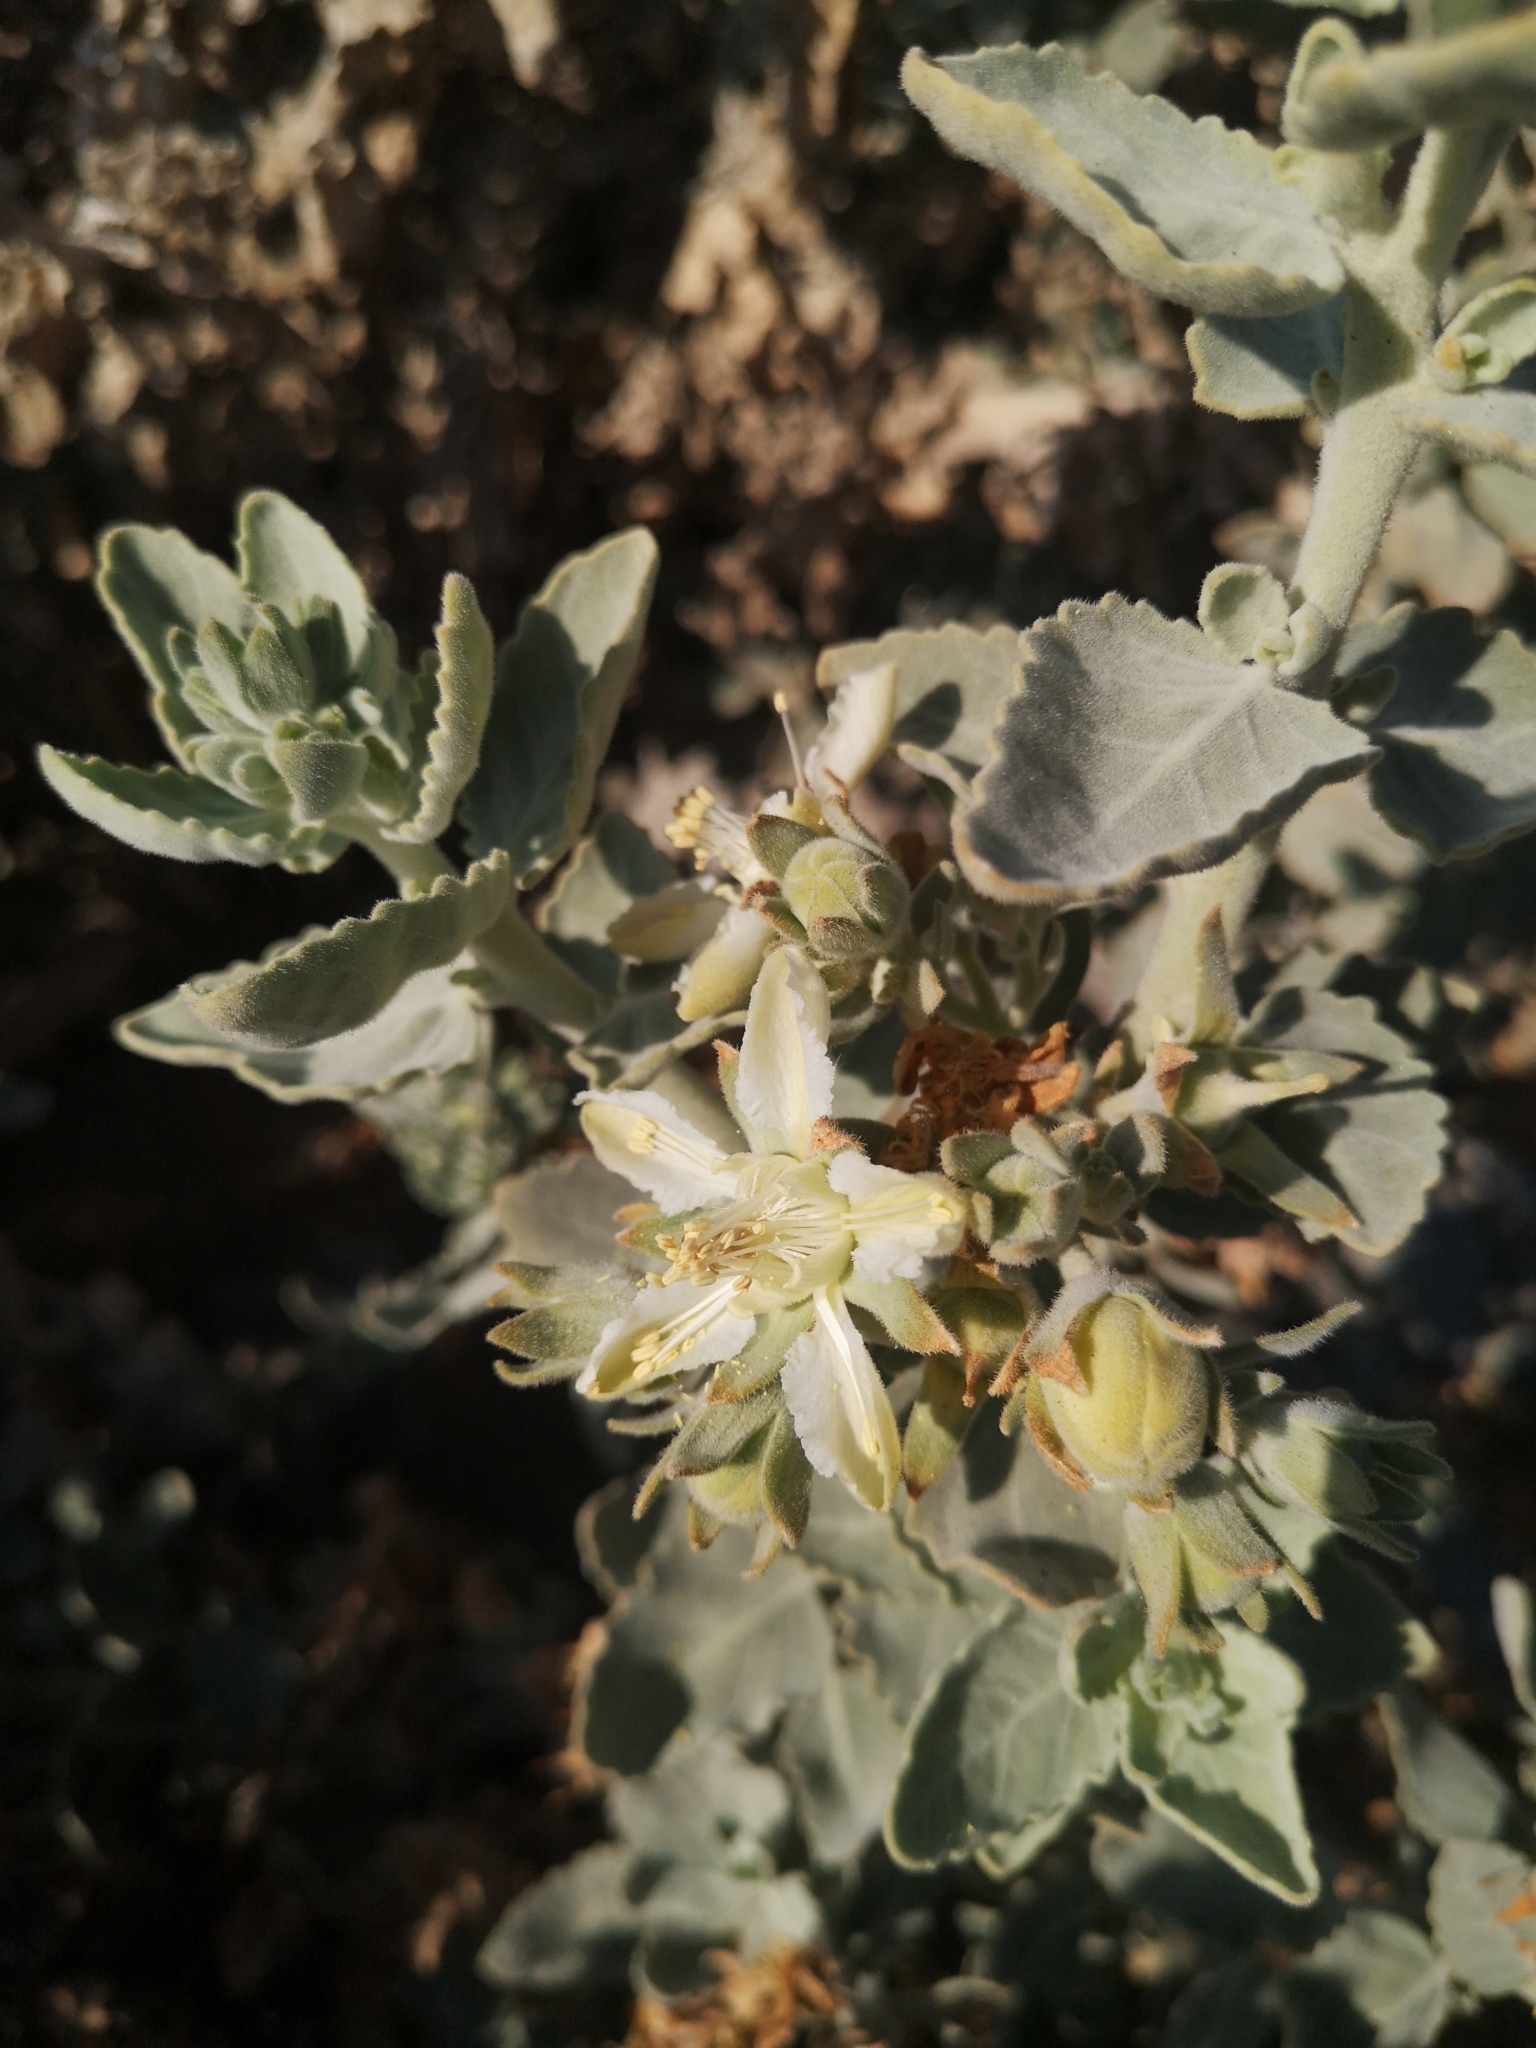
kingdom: Plantae
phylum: Tracheophyta
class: Magnoliopsida
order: Cornales
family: Loasaceae
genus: Huidobria
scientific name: Huidobria fruticosa
